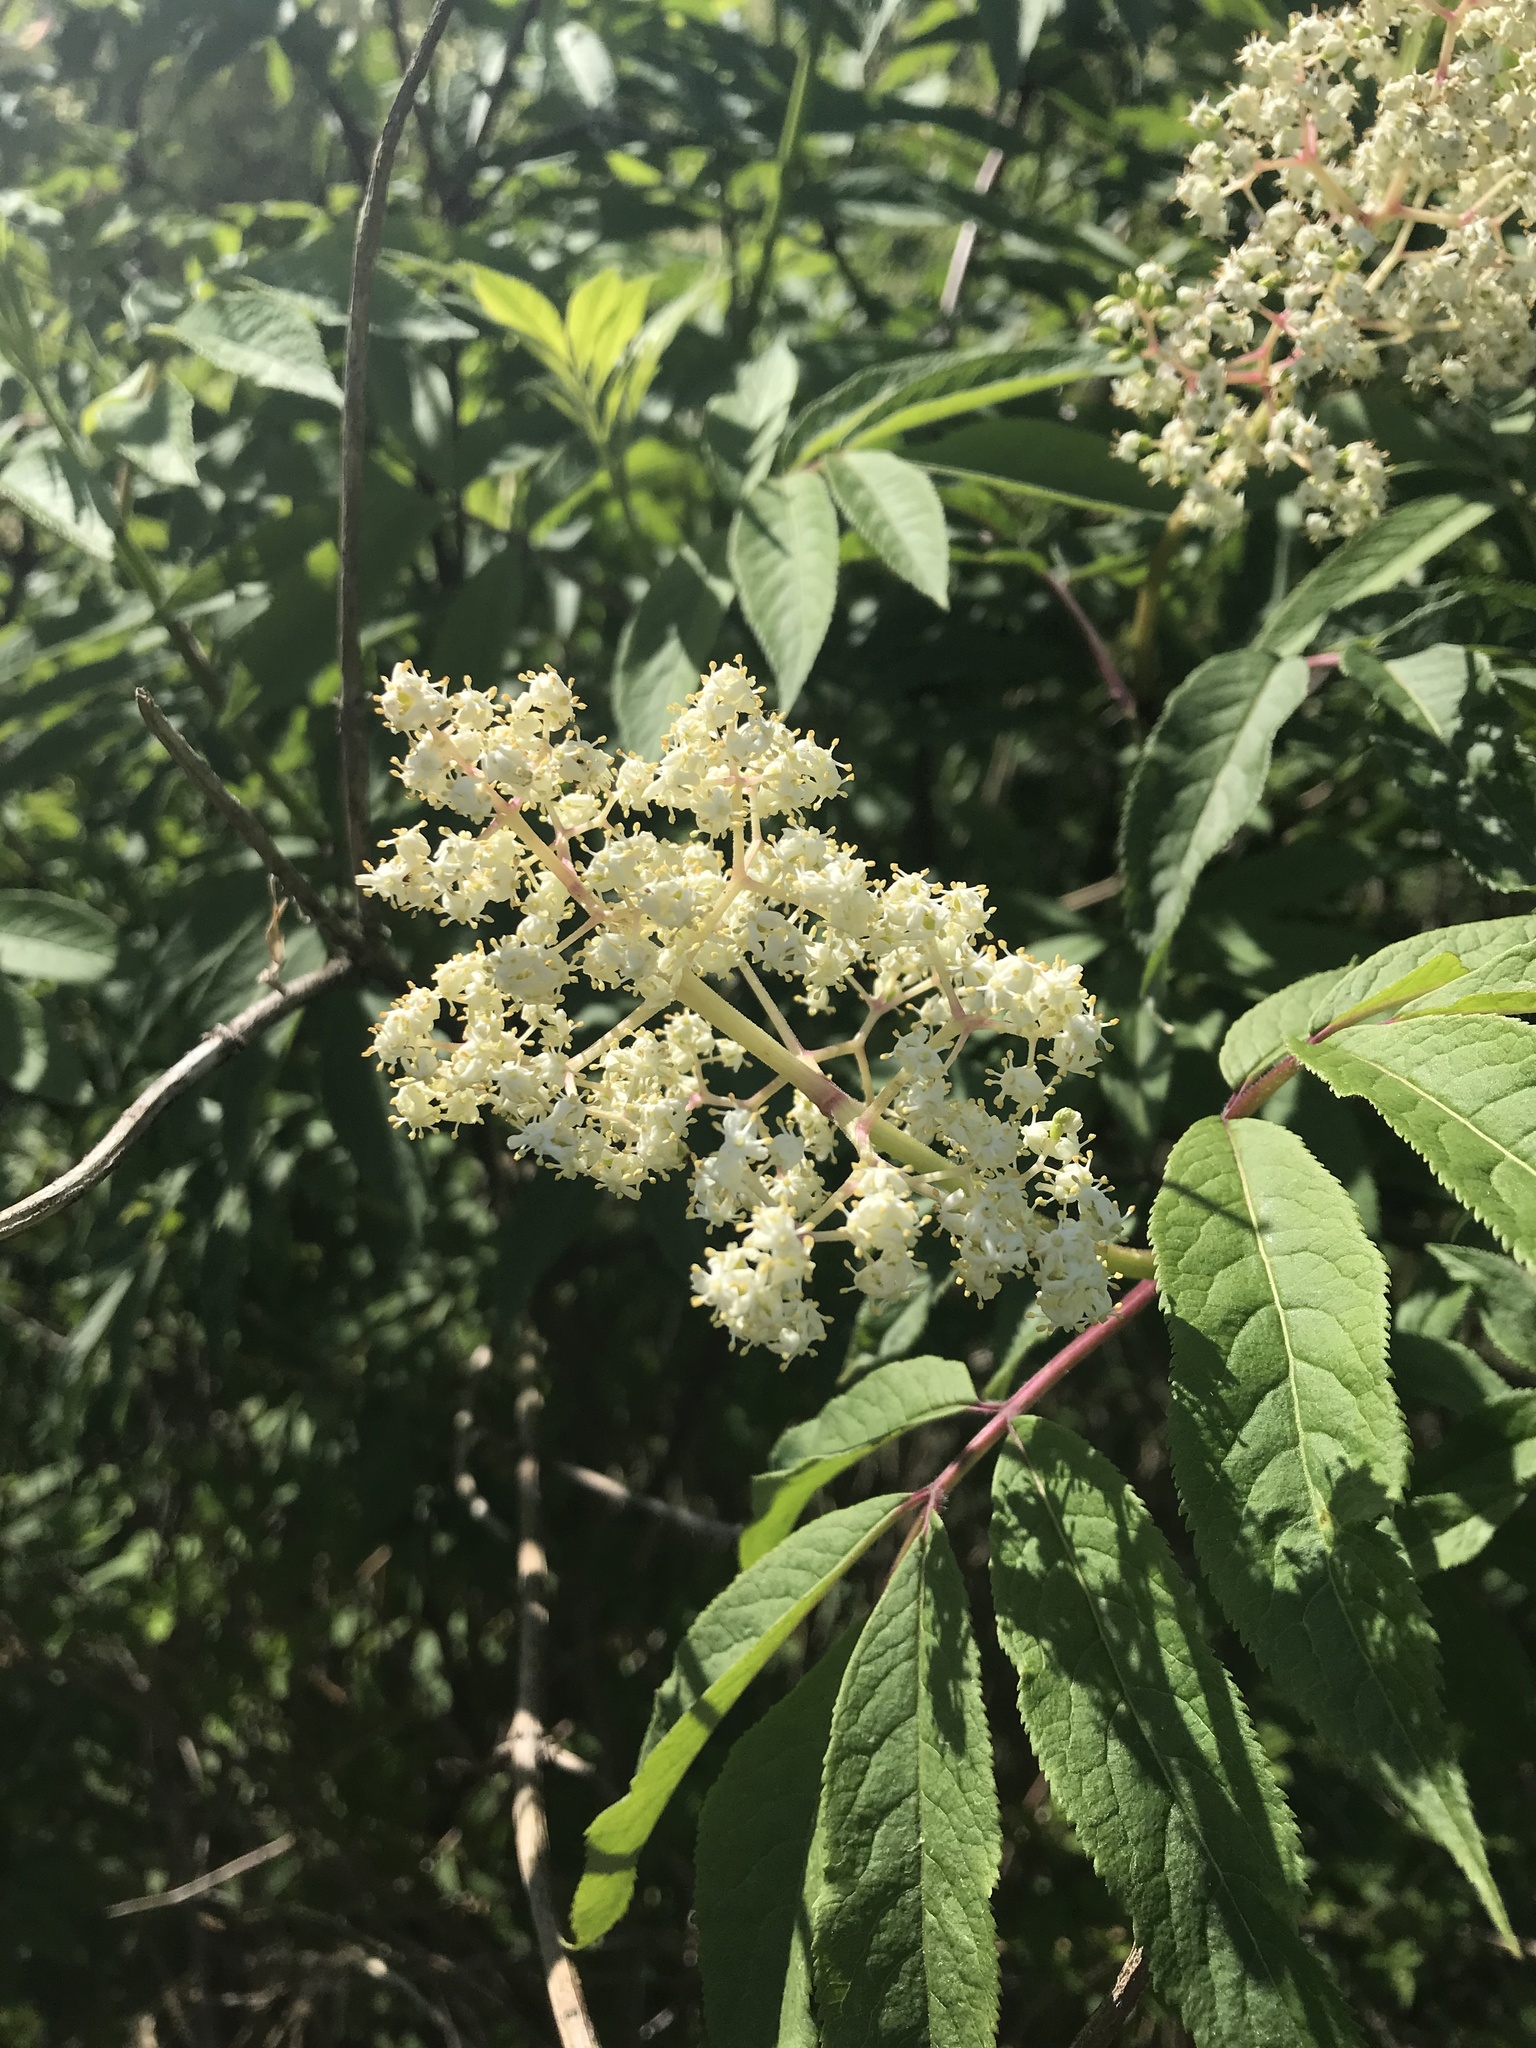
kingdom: Plantae
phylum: Tracheophyta
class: Magnoliopsida
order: Dipsacales
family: Viburnaceae
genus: Sambucus
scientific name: Sambucus racemosa
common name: Red-berried elder
